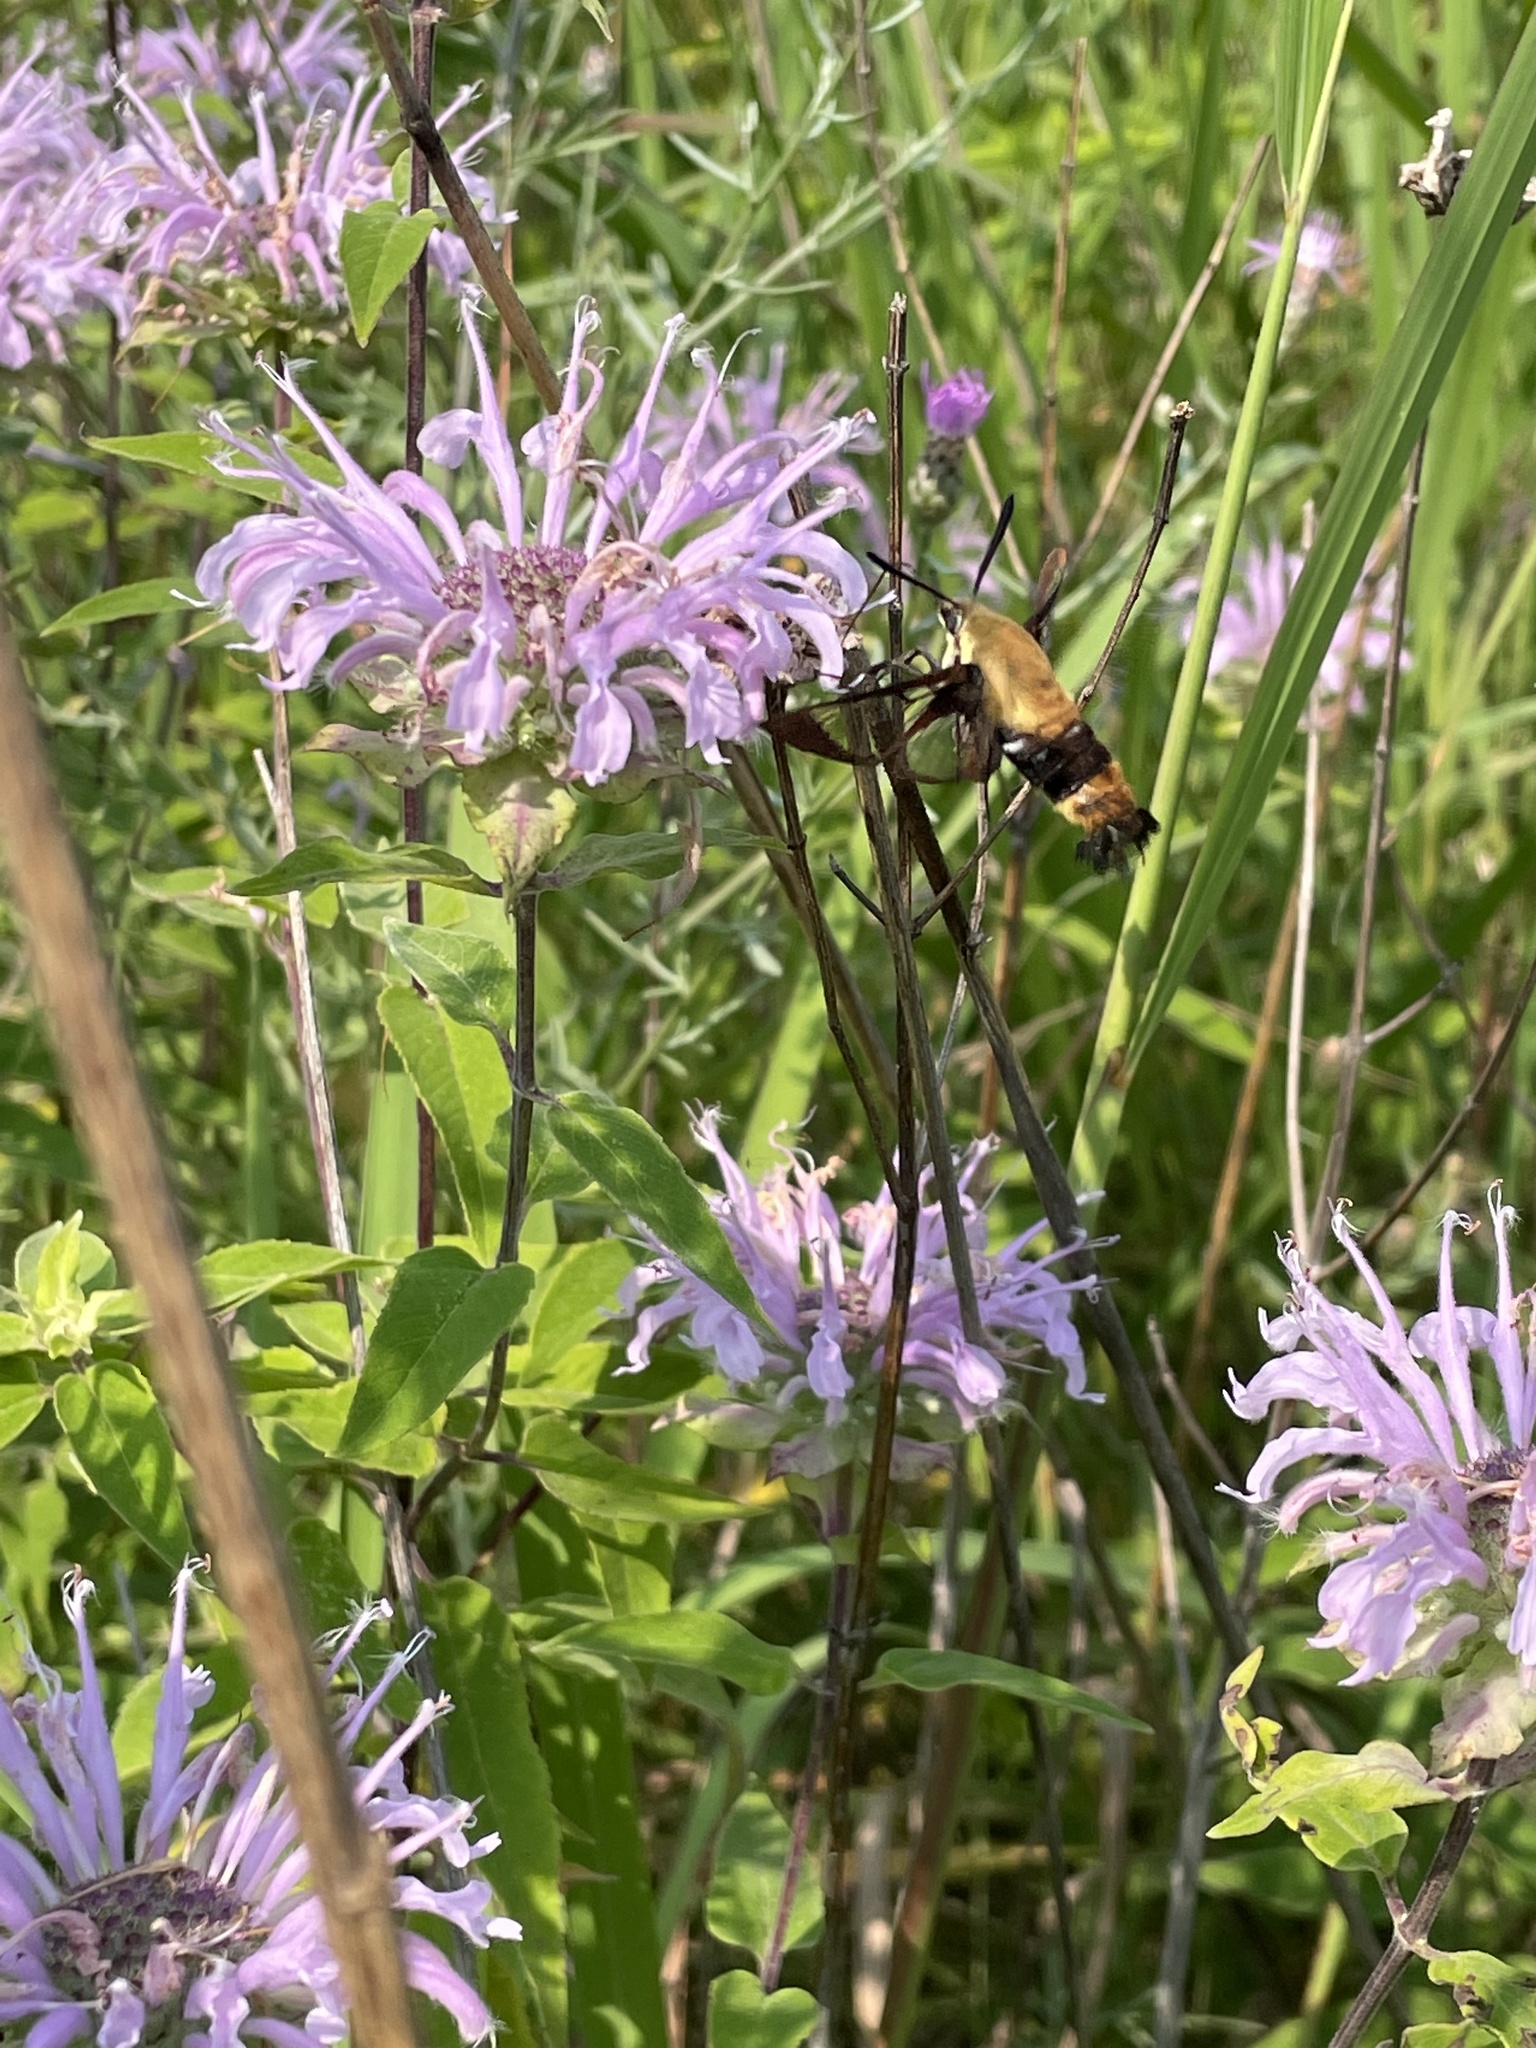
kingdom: Animalia
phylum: Arthropoda
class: Insecta
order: Lepidoptera
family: Sphingidae
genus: Hemaris
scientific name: Hemaris diffinis
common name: Bumblebee moth
